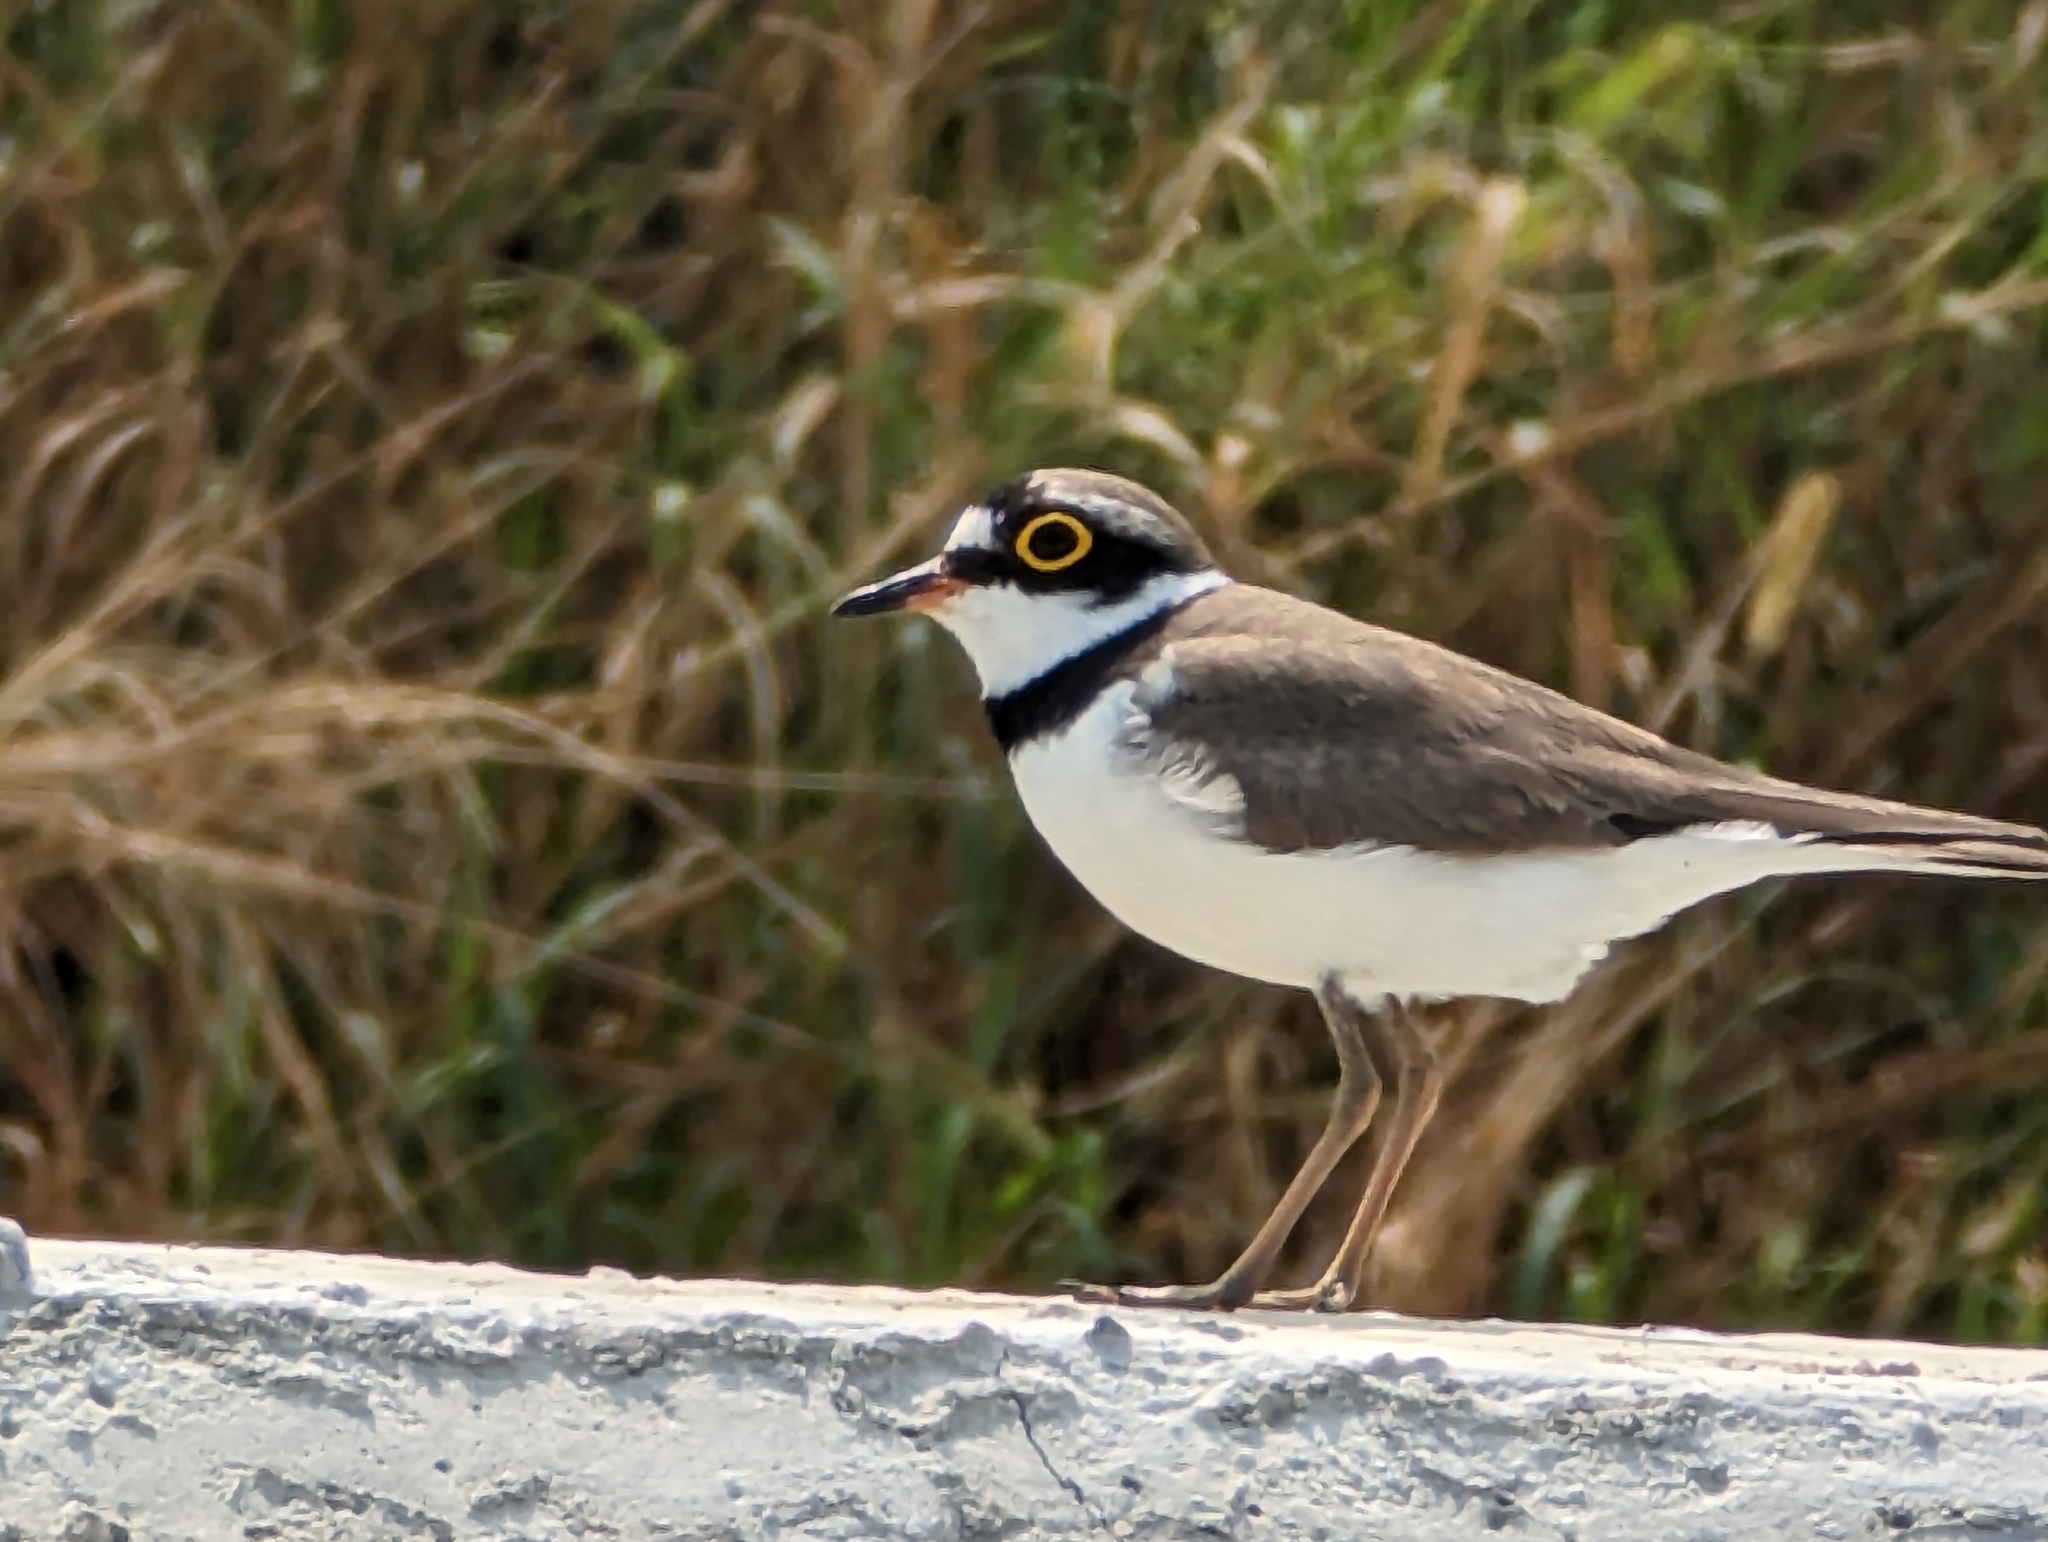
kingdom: Animalia
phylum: Chordata
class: Aves
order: Charadriiformes
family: Charadriidae
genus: Charadrius
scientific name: Charadrius dubius
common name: Little ringed plover
